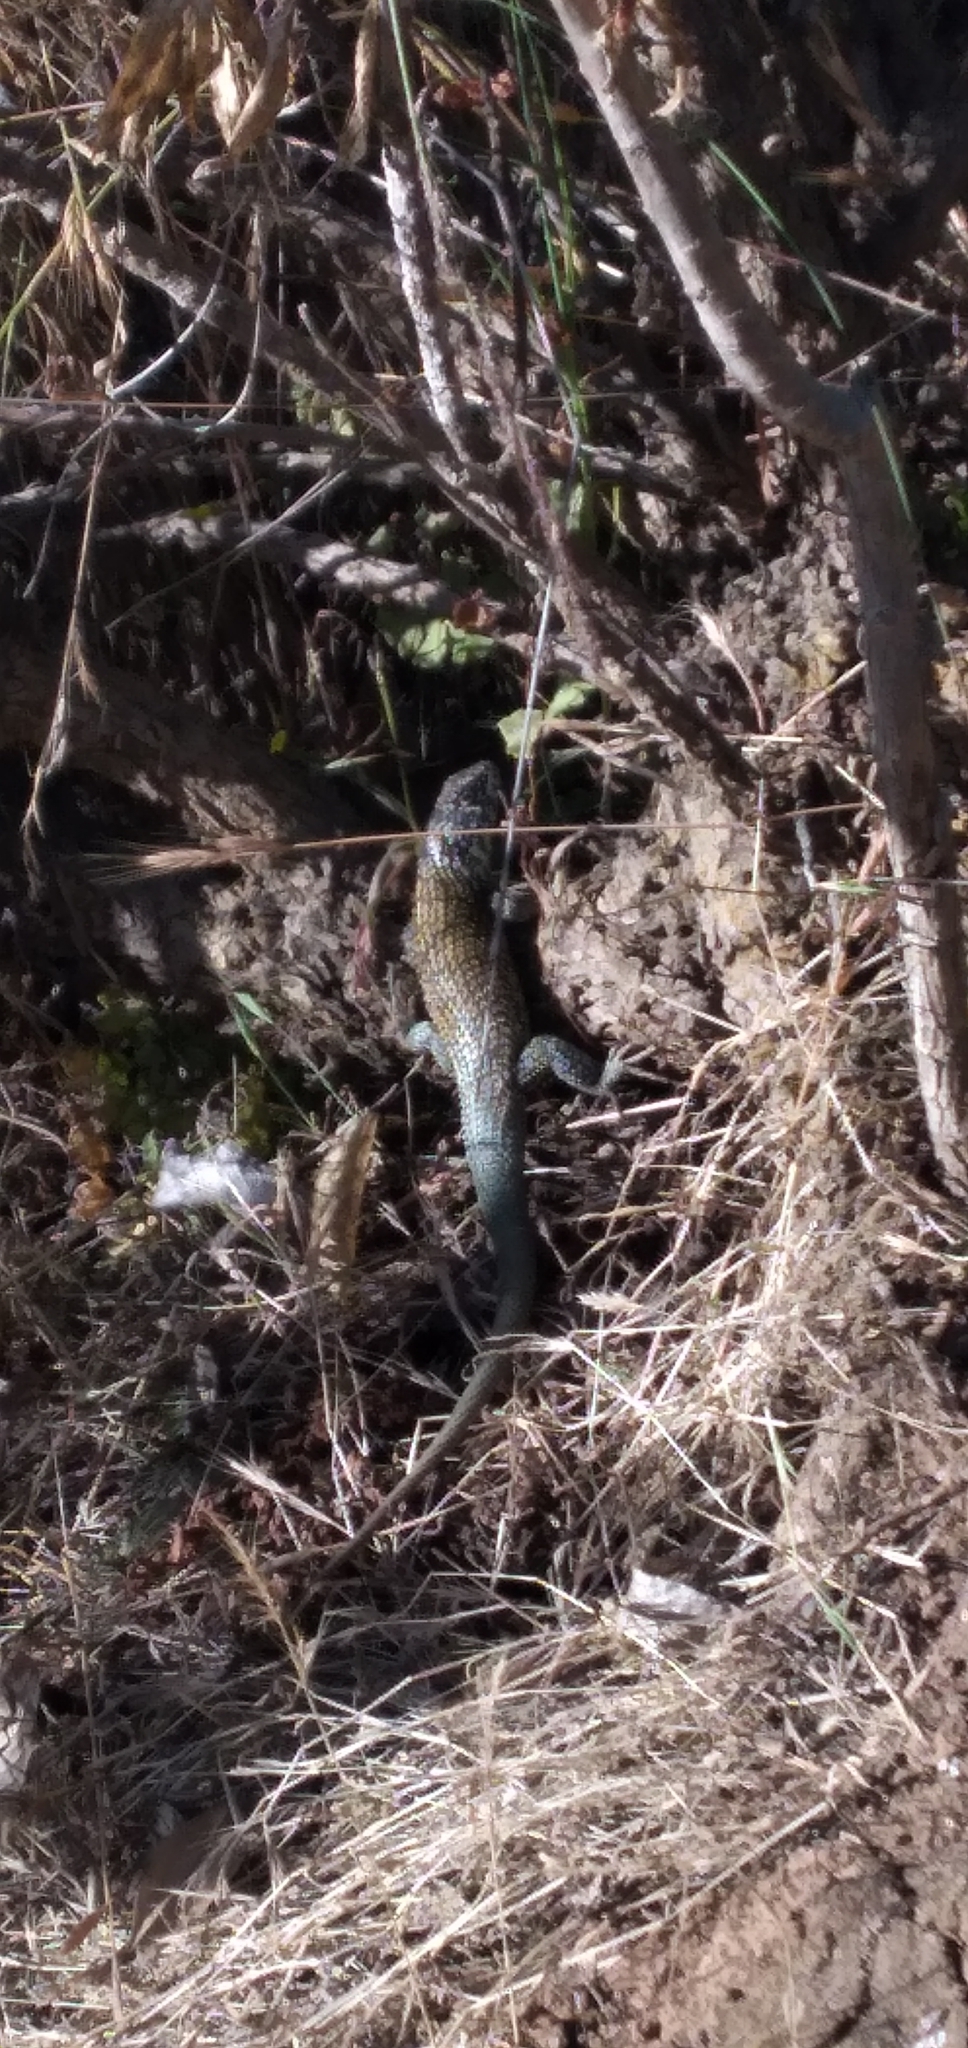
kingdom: Animalia
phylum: Chordata
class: Squamata
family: Liolaemidae
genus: Liolaemus
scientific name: Liolaemus nitidus
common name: Shining tree iguana
